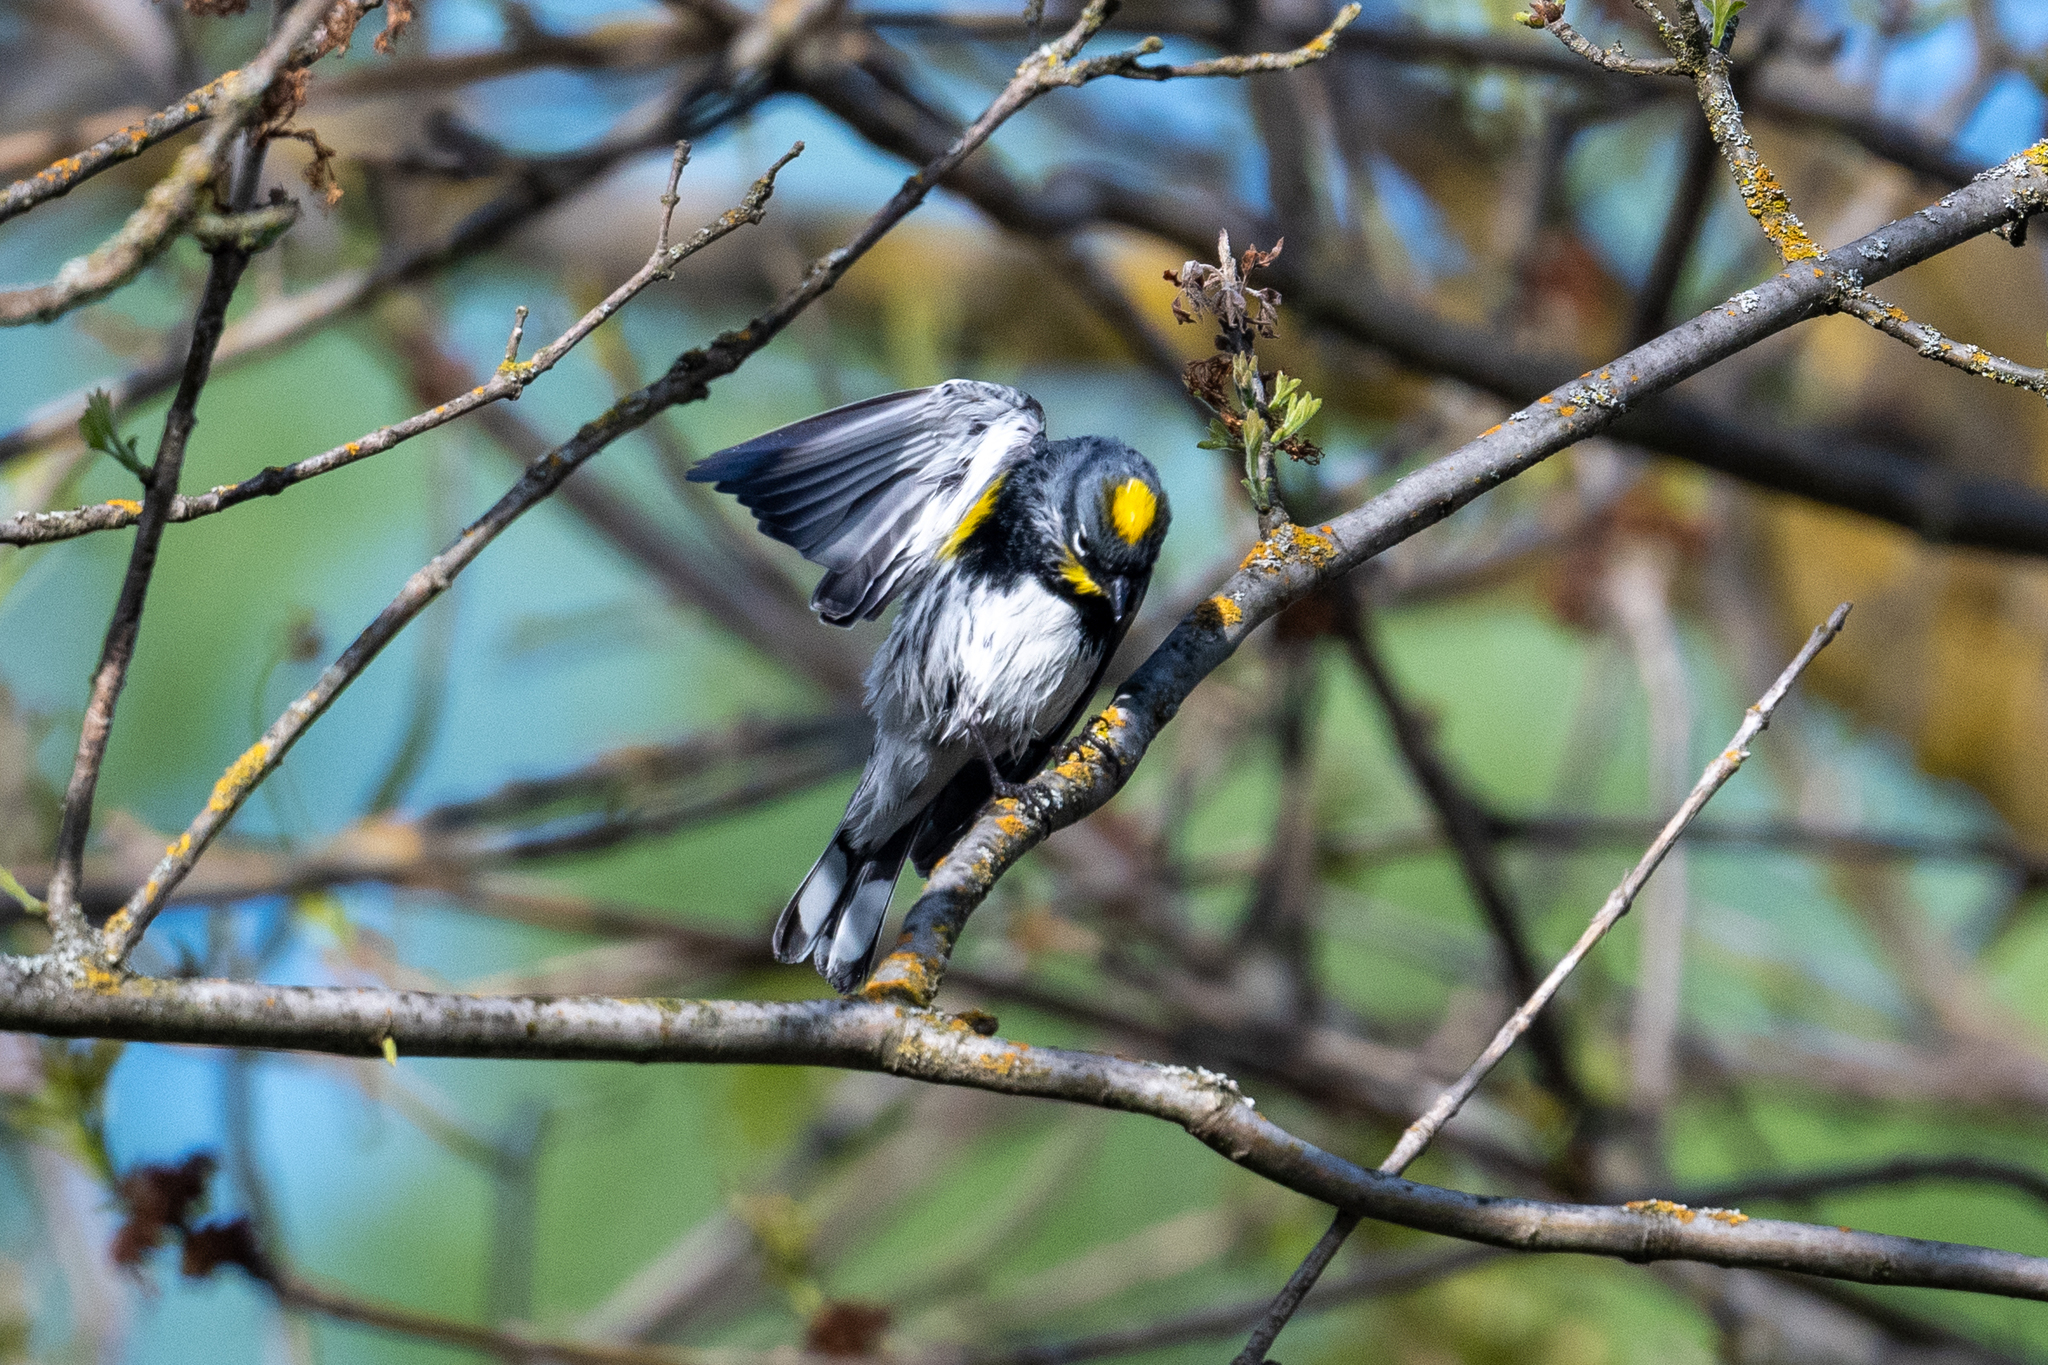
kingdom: Animalia
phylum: Chordata
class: Aves
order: Passeriformes
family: Parulidae
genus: Setophaga
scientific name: Setophaga coronata
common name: Myrtle warbler
